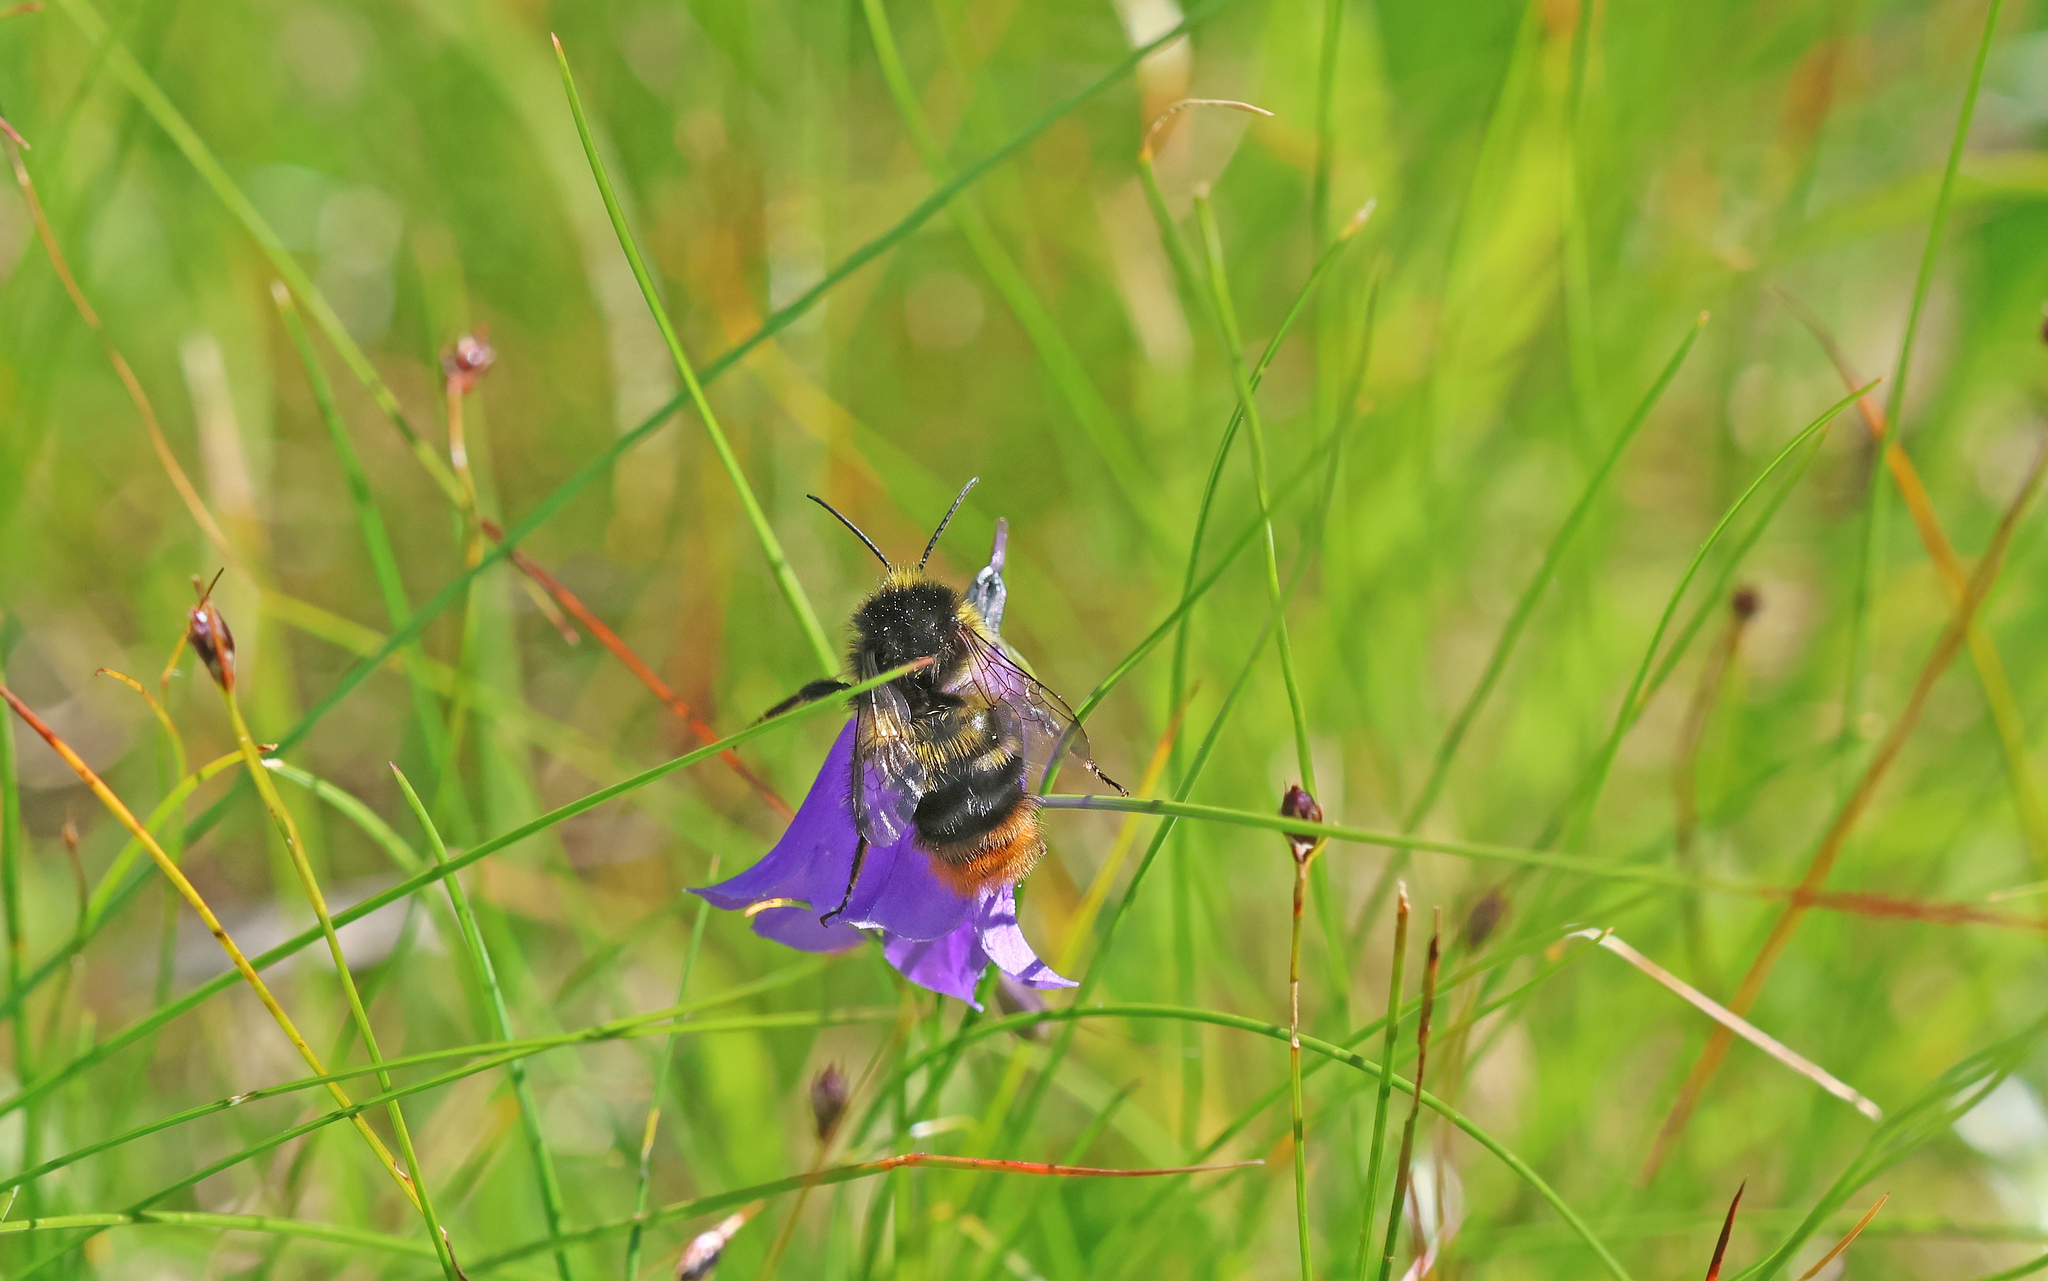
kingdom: Animalia
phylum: Arthropoda
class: Insecta
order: Hymenoptera
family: Apidae
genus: Bombus
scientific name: Bombus soroeensis
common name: Broken-belted humble-bee
